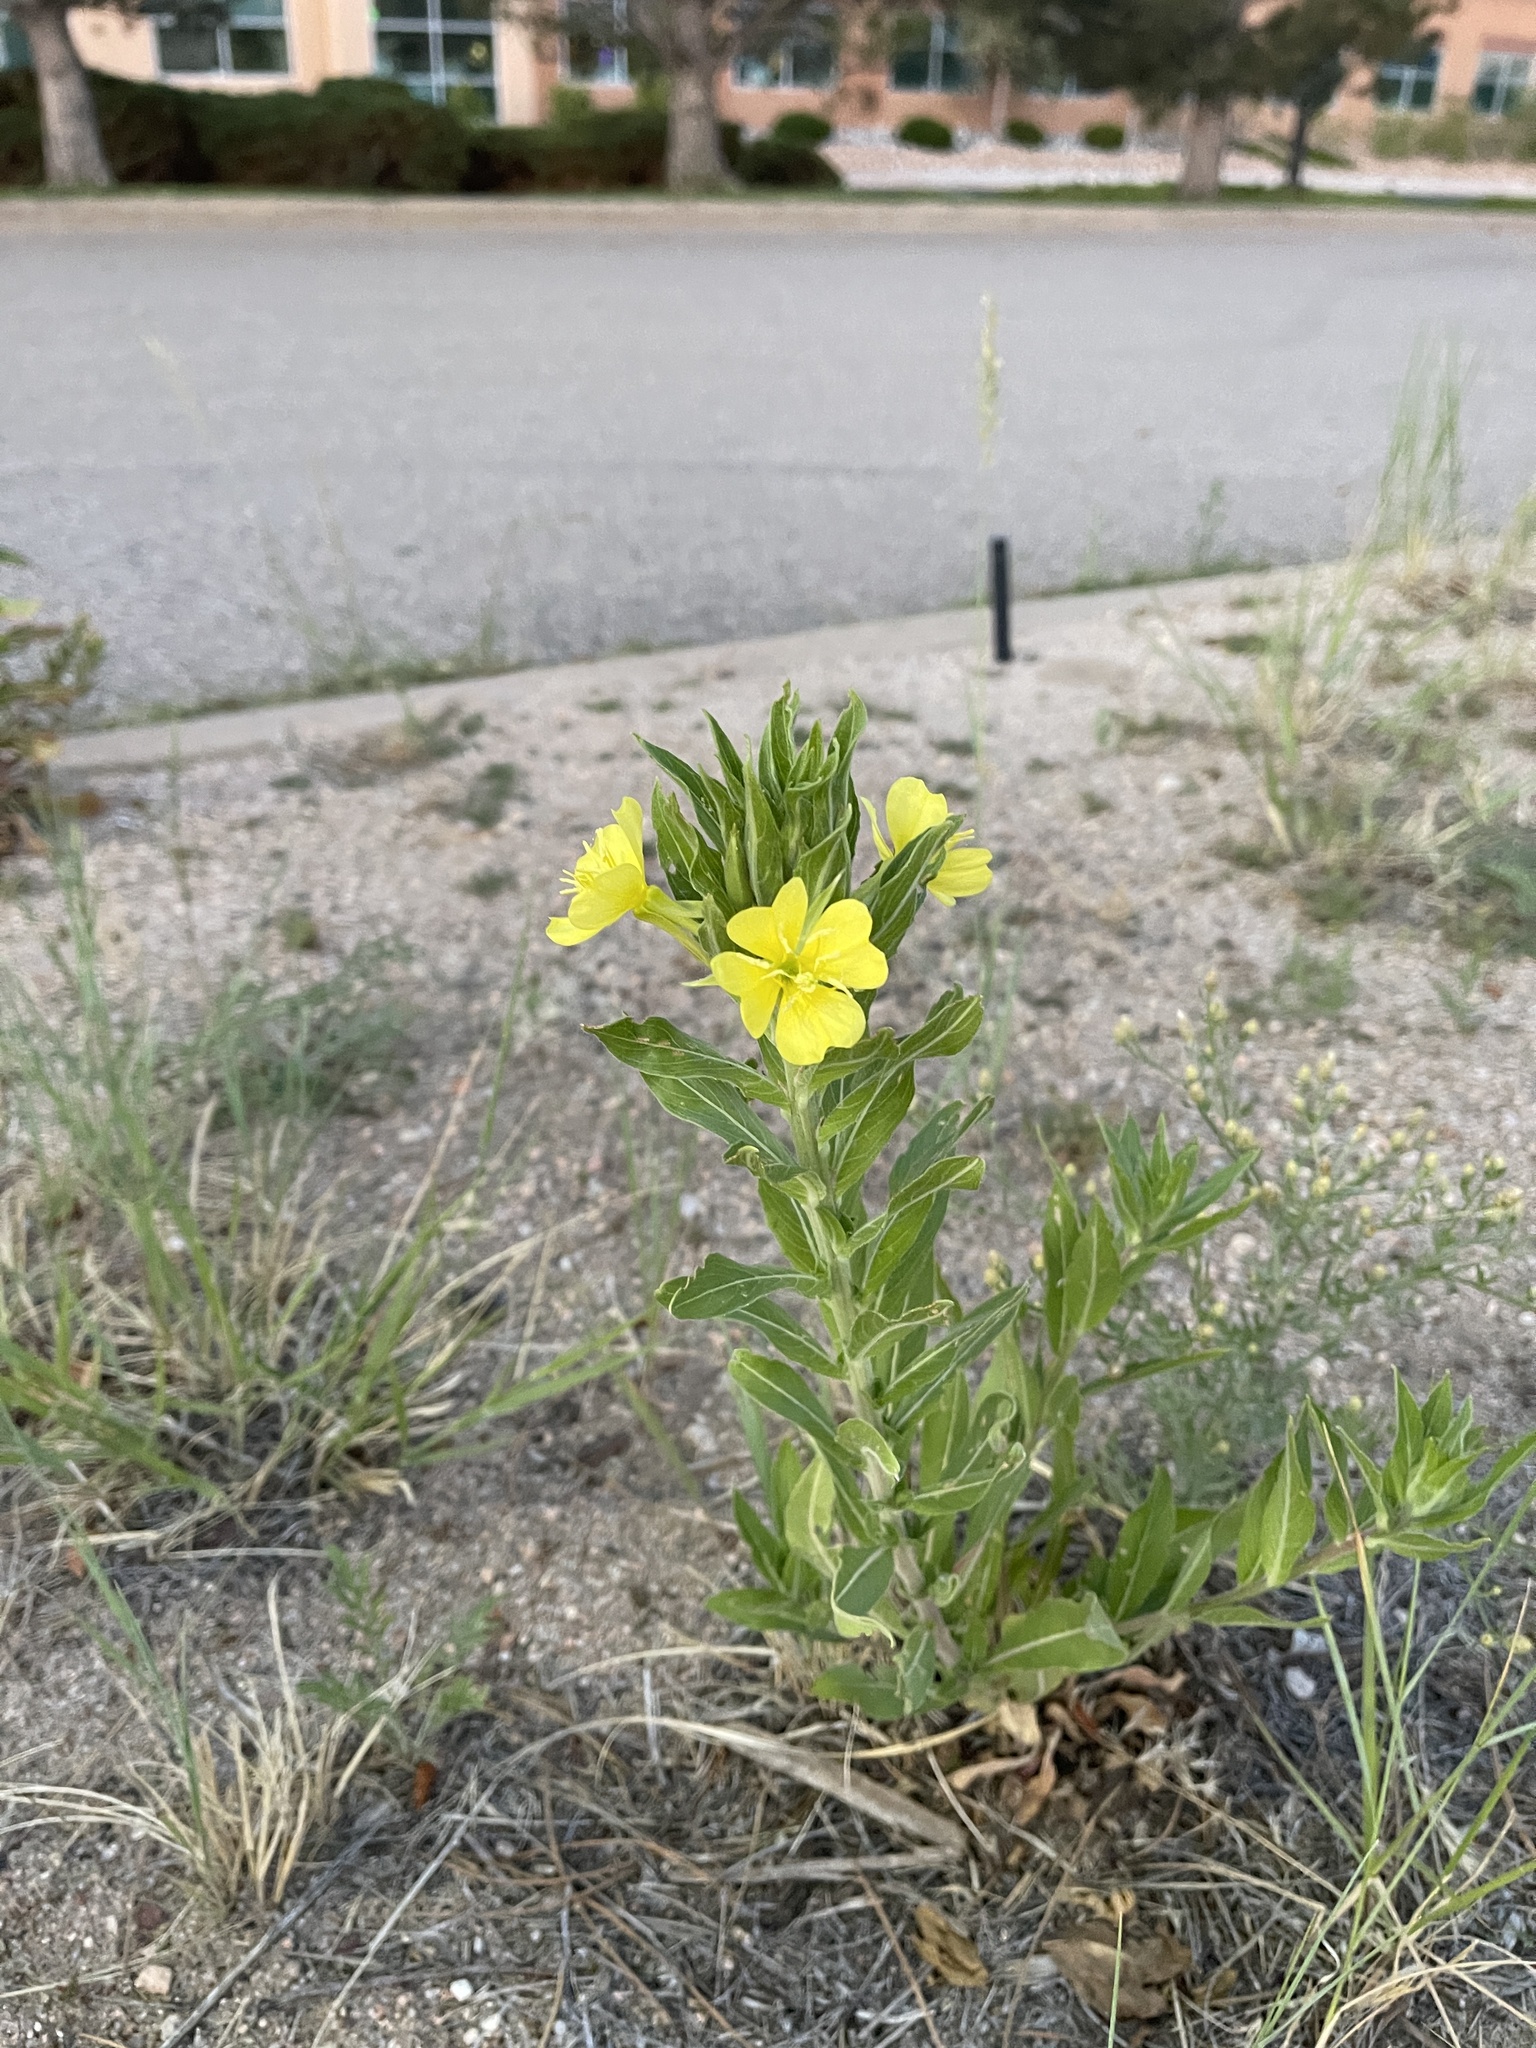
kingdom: Plantae
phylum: Tracheophyta
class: Magnoliopsida
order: Myrtales
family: Onagraceae
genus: Oenothera
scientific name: Oenothera villosa
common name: Hairy evening-primrose
